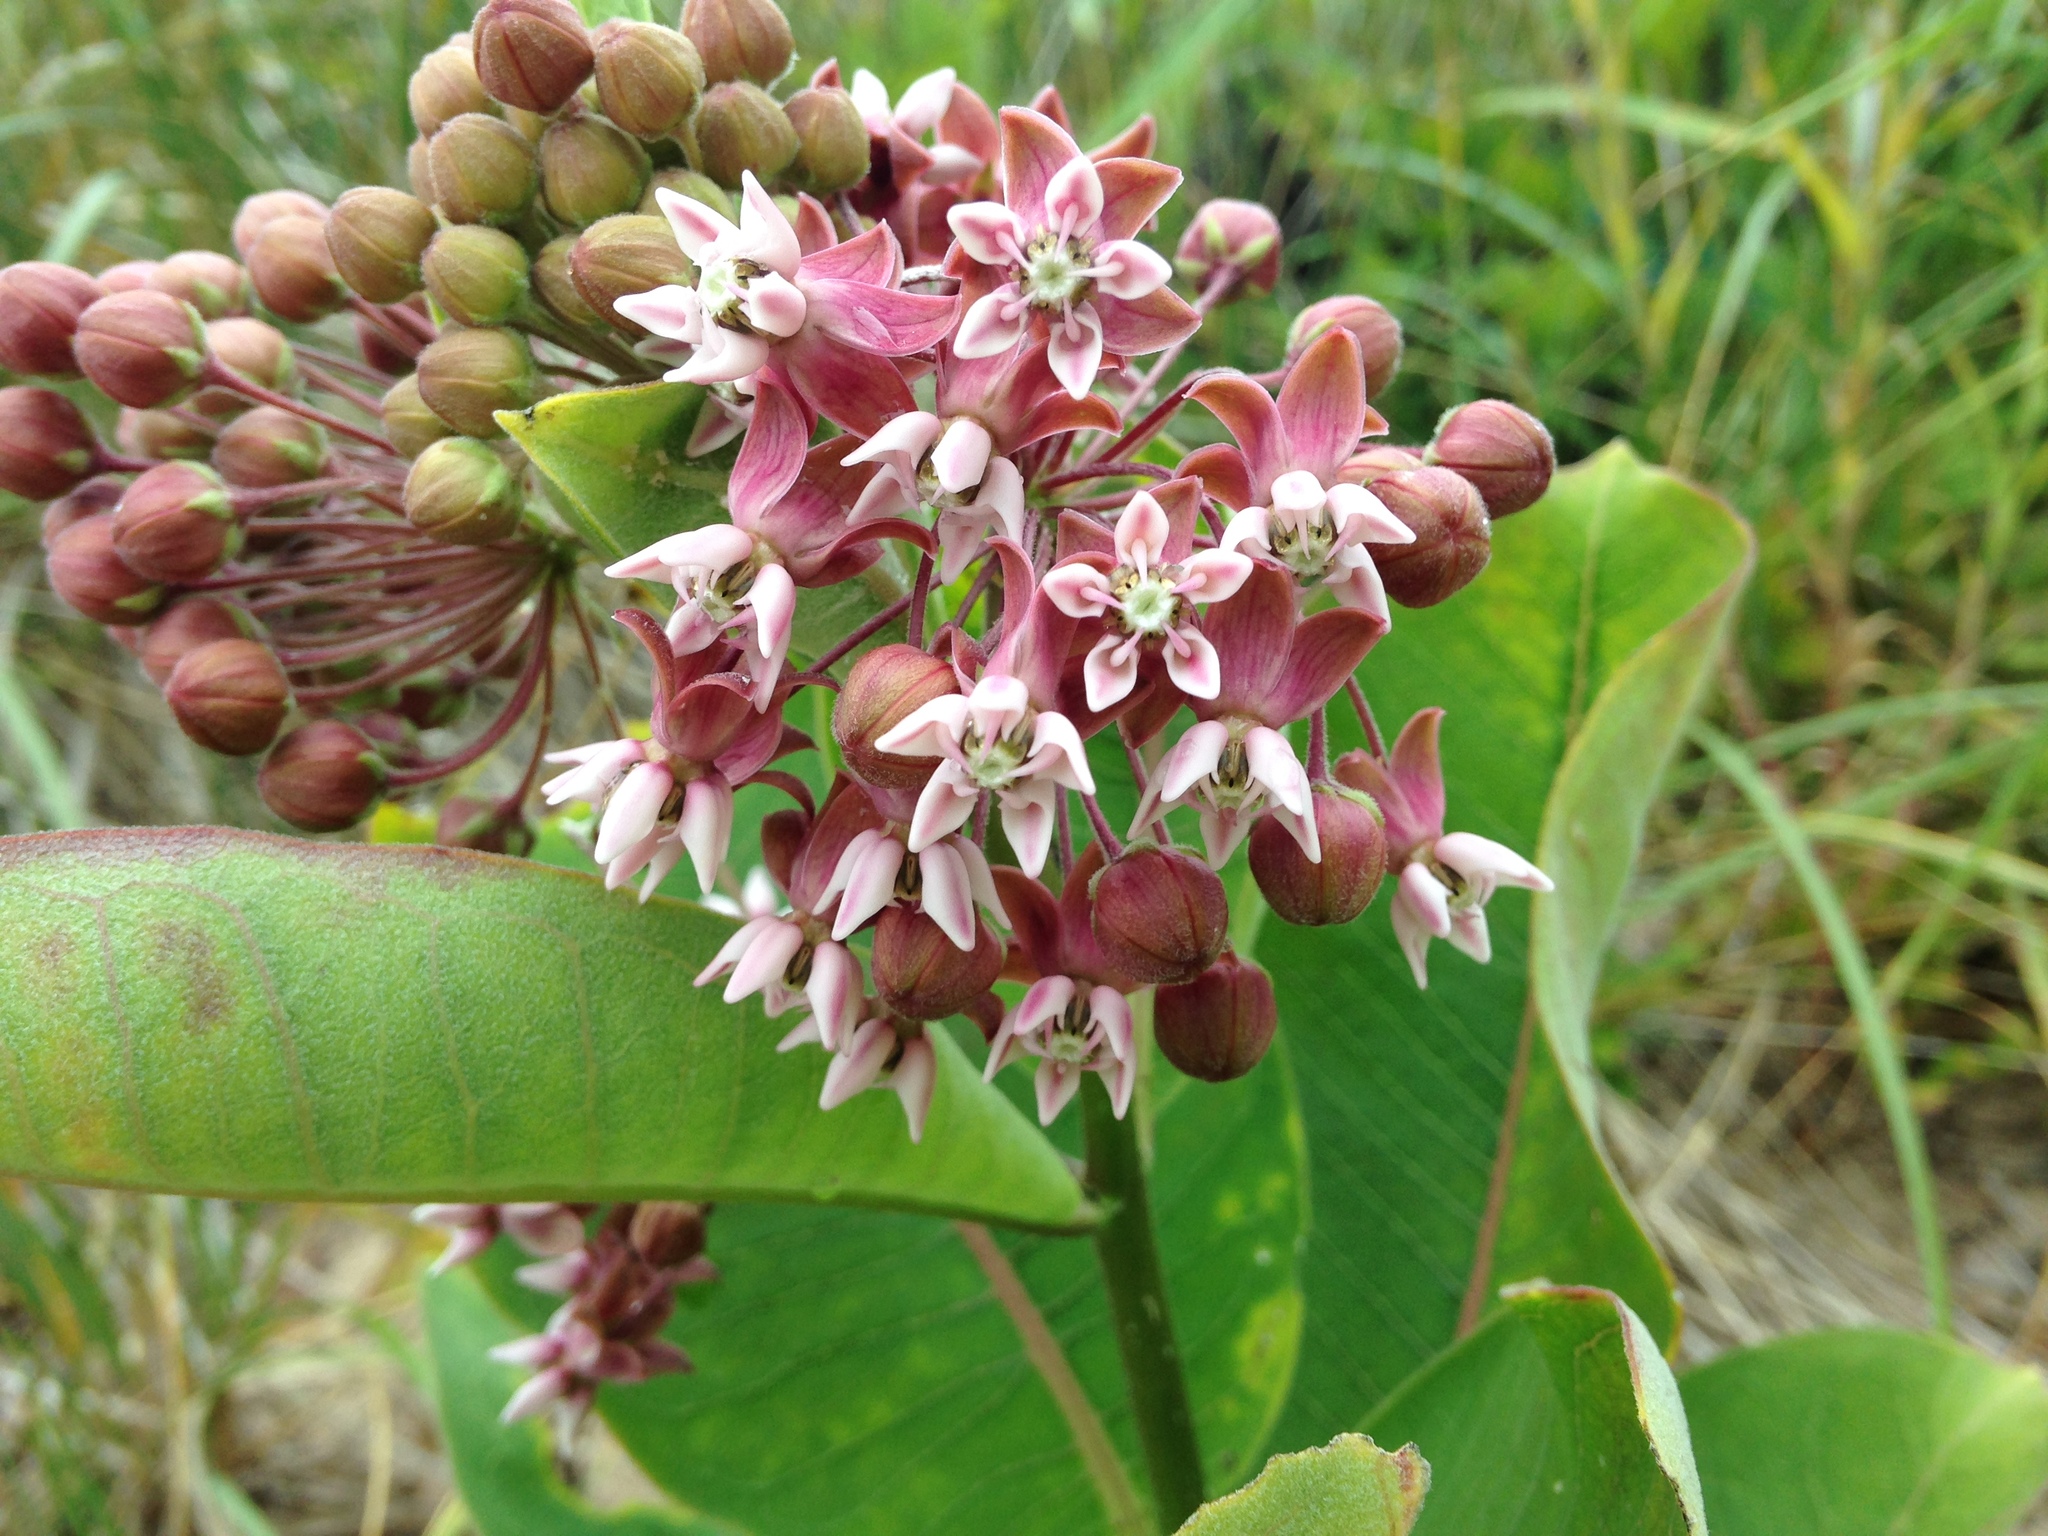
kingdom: Plantae
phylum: Tracheophyta
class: Magnoliopsida
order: Gentianales
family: Apocynaceae
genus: Asclepias
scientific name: Asclepias syriaca
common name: Common milkweed
